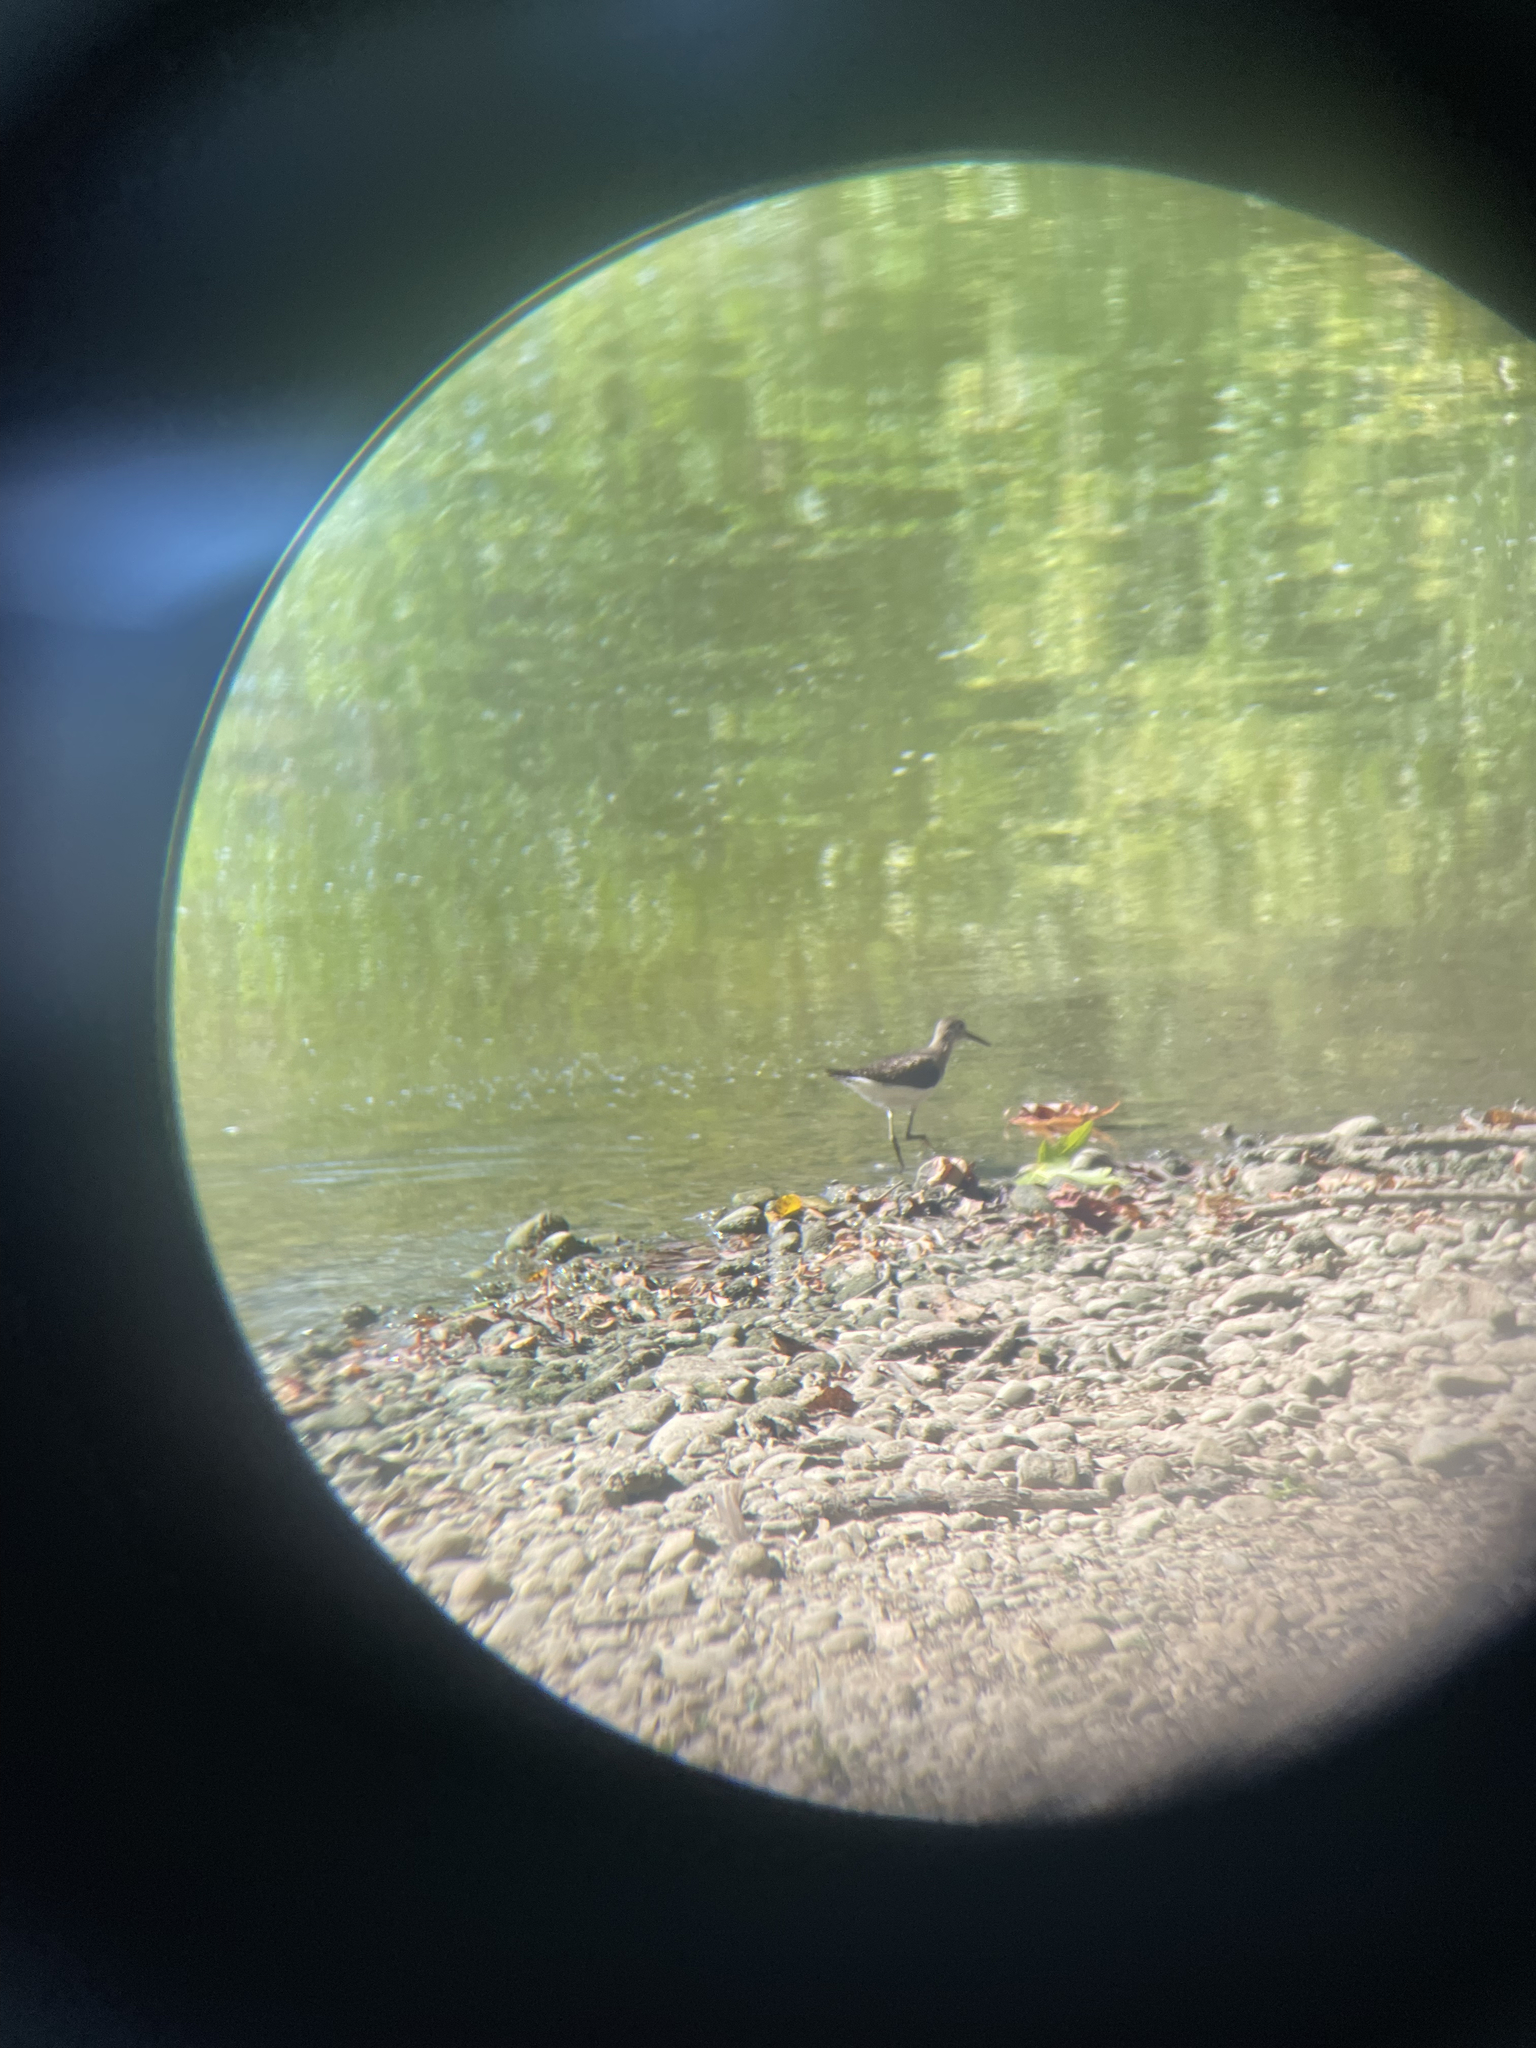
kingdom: Animalia
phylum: Chordata
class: Aves
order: Charadriiformes
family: Scolopacidae
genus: Tringa
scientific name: Tringa solitaria
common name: Solitary sandpiper
